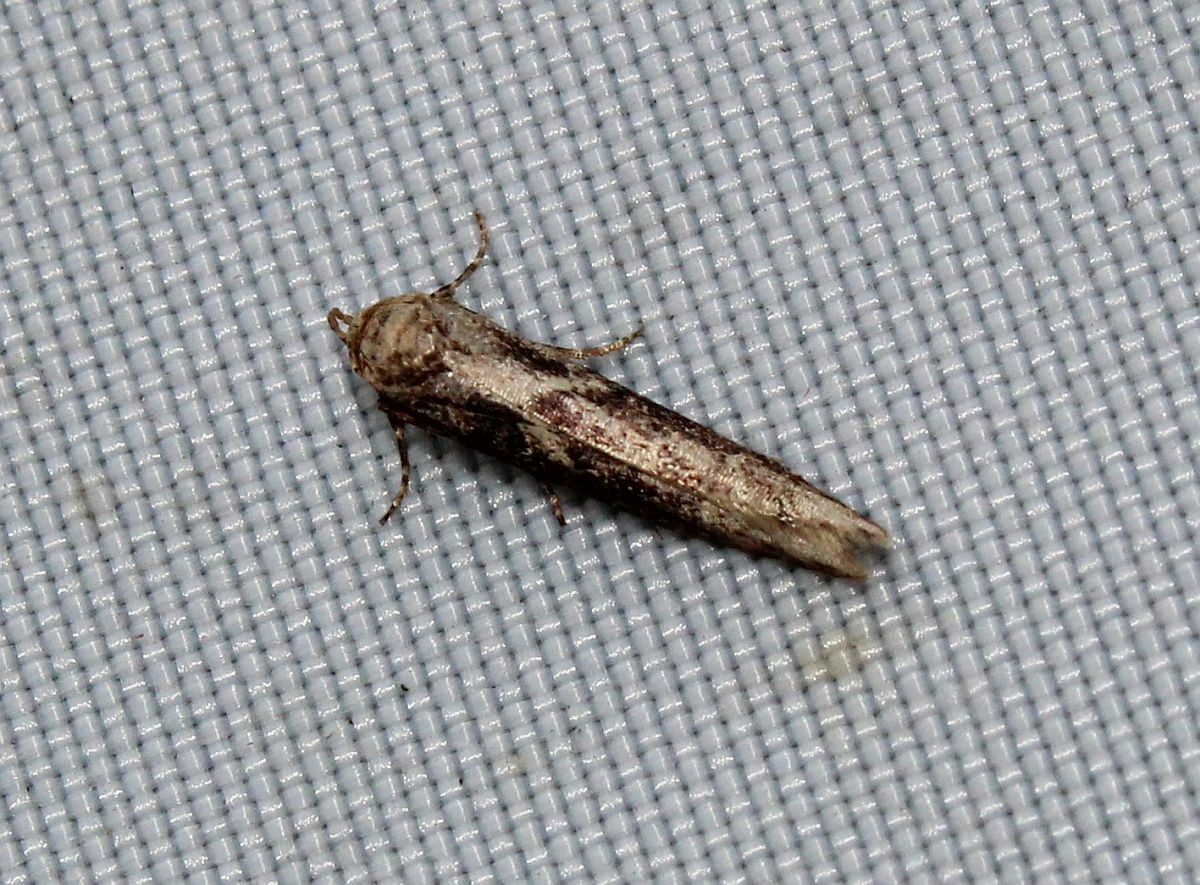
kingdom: Animalia
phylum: Arthropoda
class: Insecta
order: Lepidoptera
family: Blastobasidae
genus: Blastobasis
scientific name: Blastobasis adustella
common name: Dingy dowd
